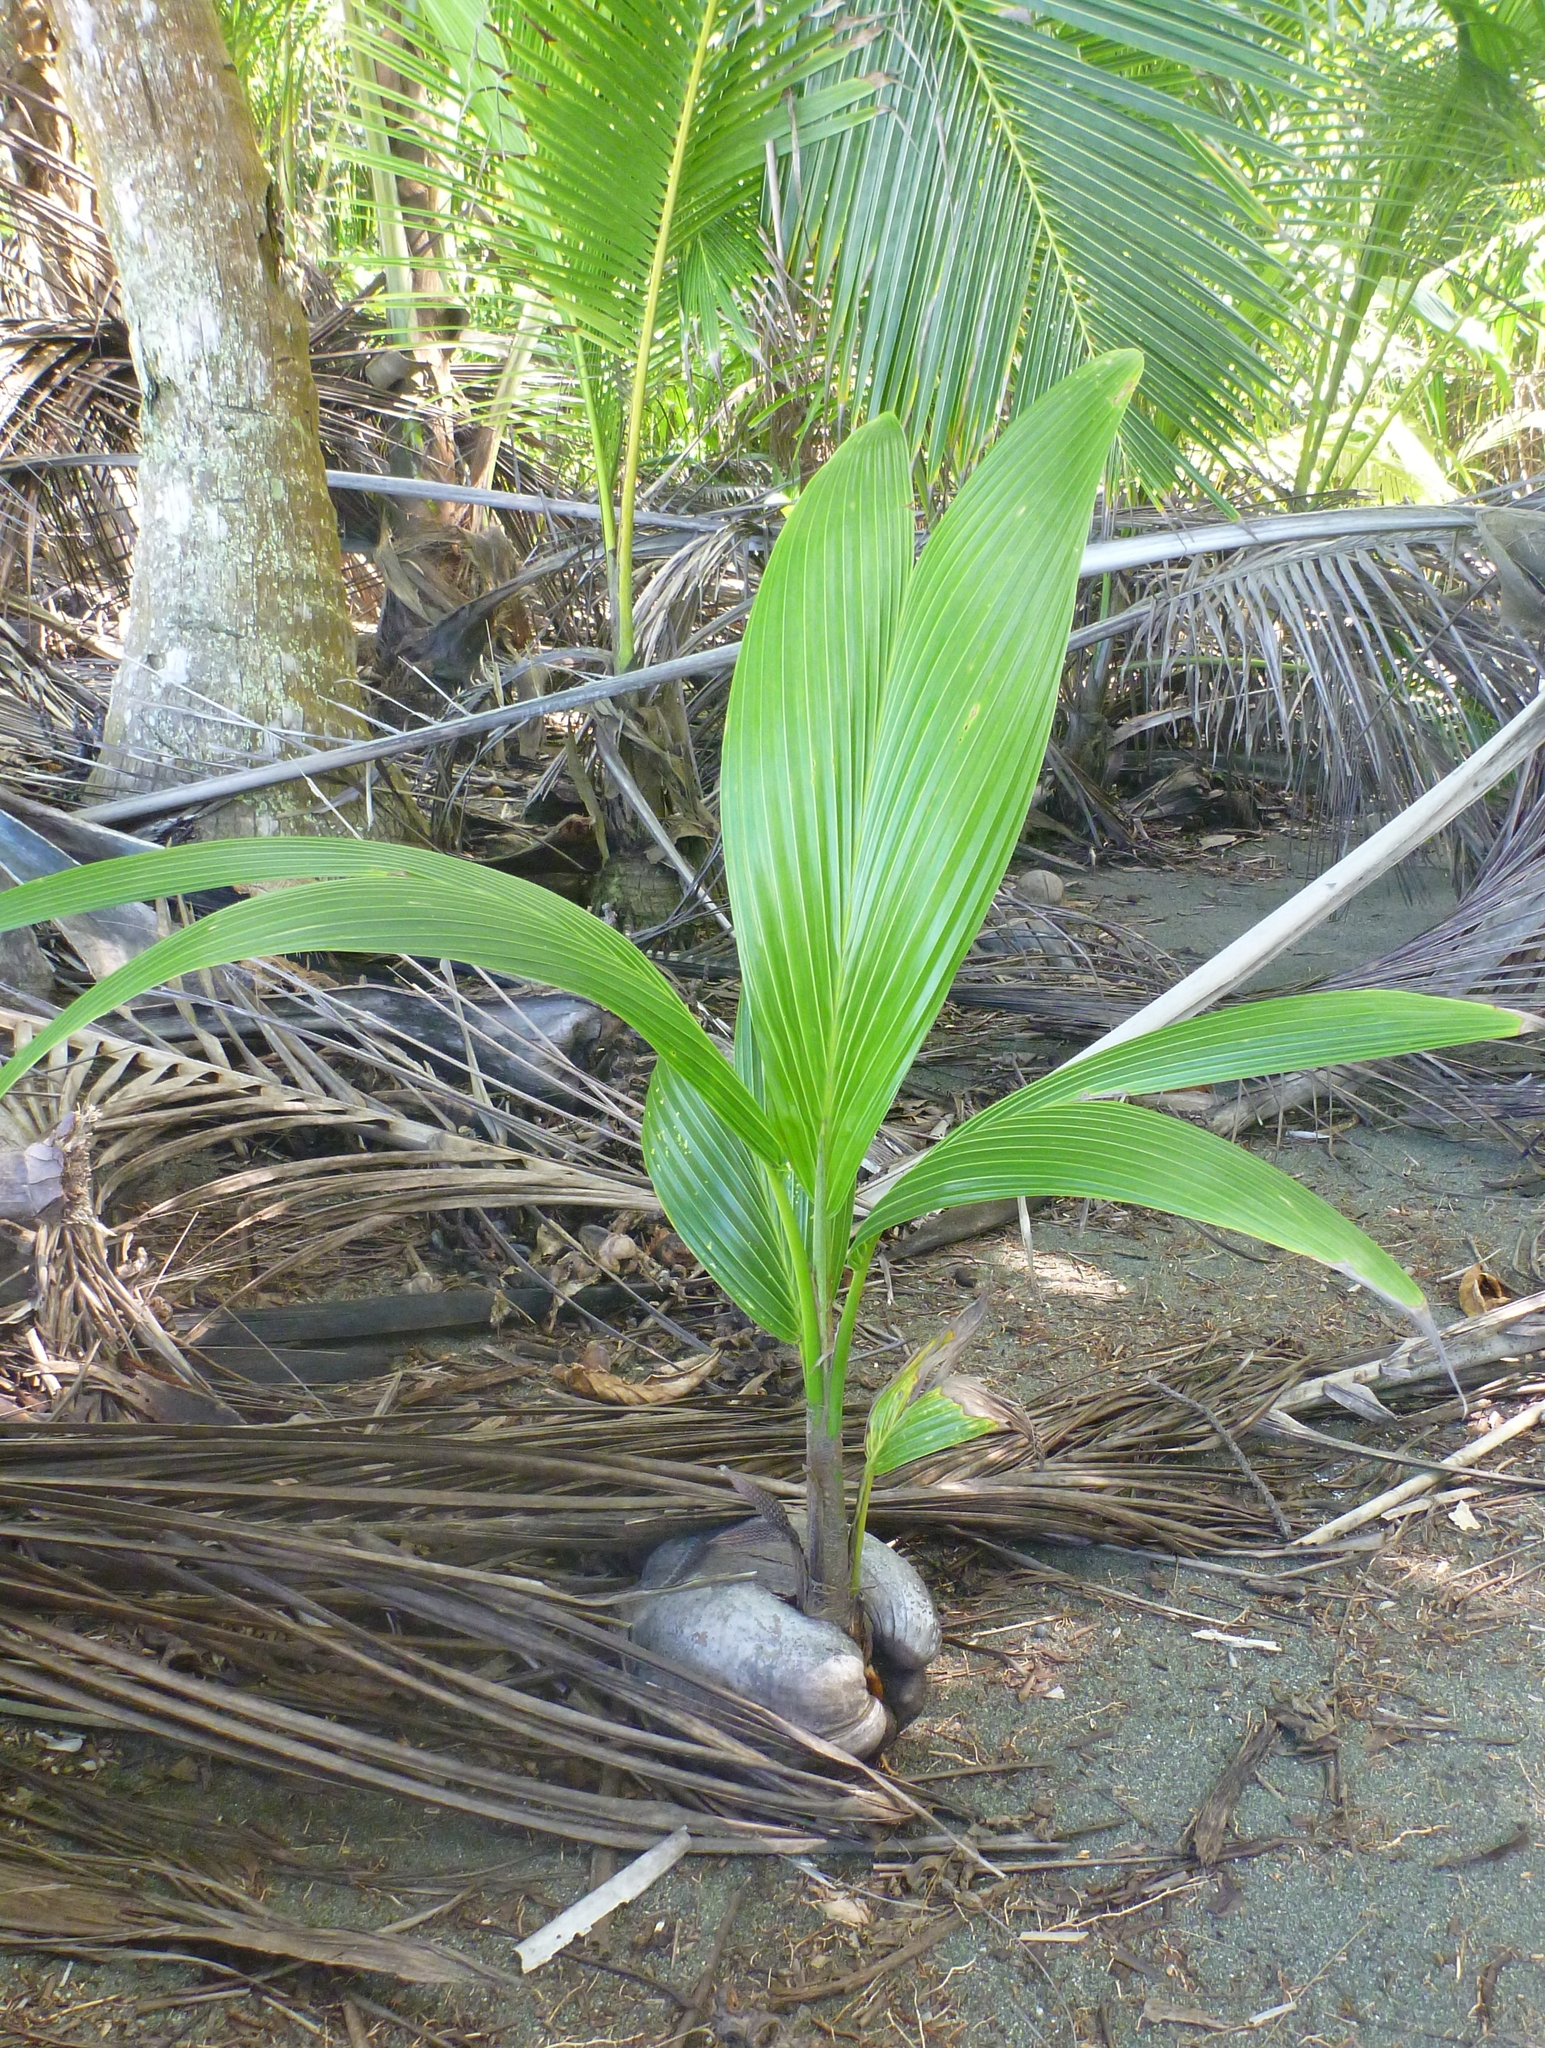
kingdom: Plantae
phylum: Tracheophyta
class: Liliopsida
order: Arecales
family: Arecaceae
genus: Cocos
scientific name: Cocos nucifera
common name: Coconut palm
